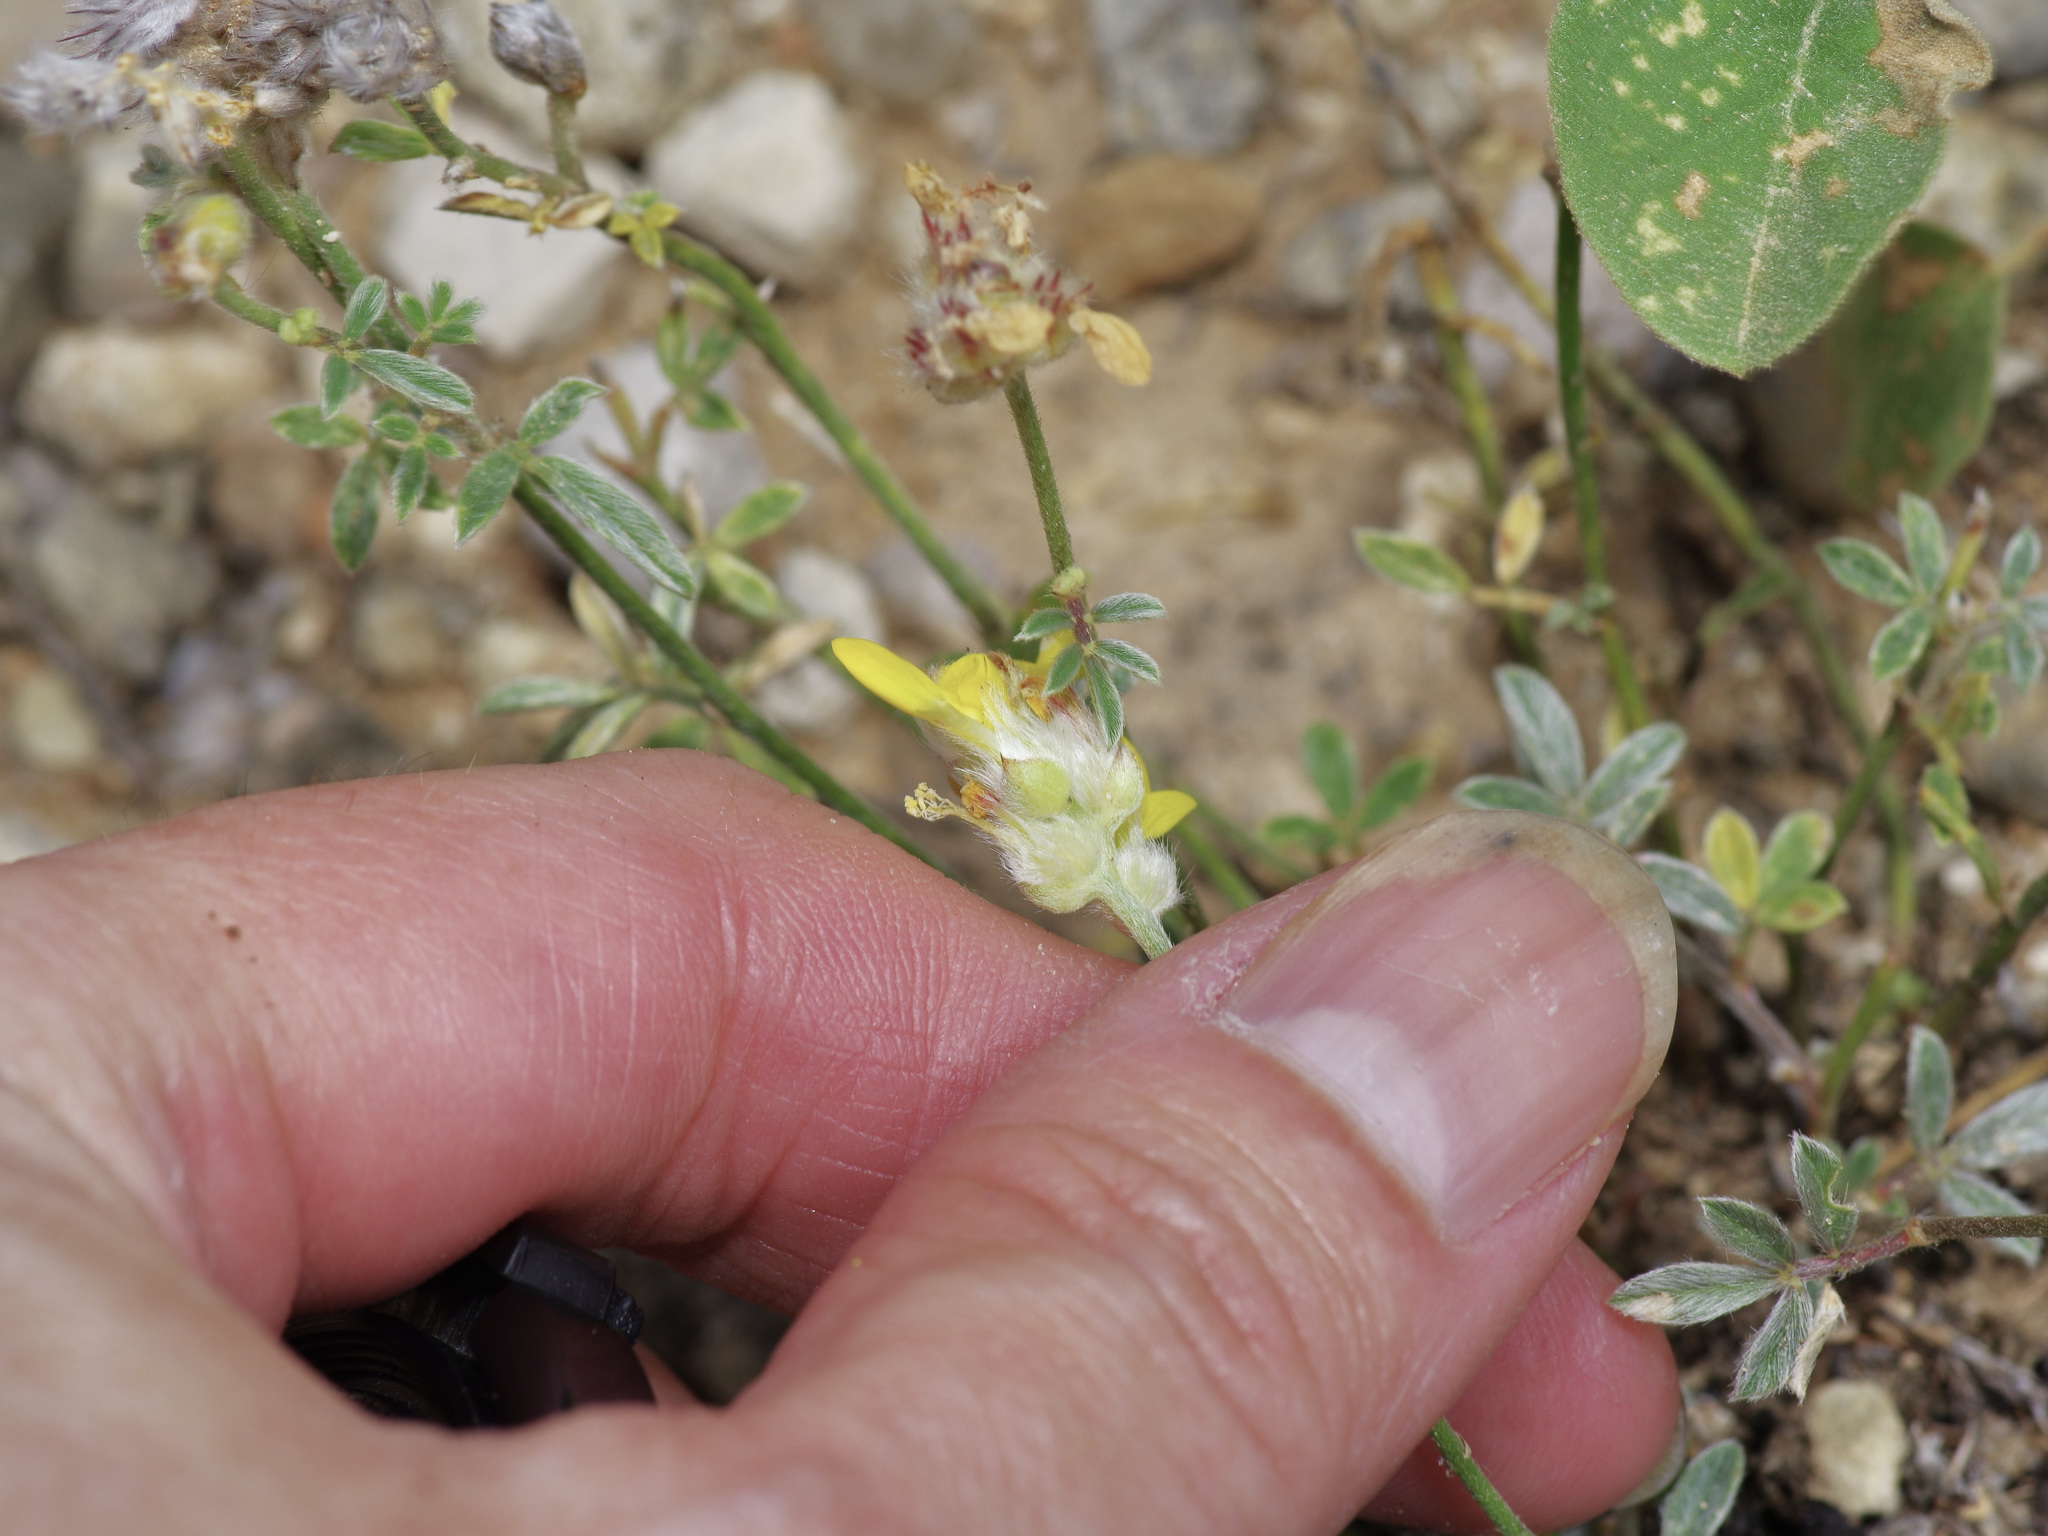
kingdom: Plantae
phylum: Tracheophyta
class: Magnoliopsida
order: Fabales
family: Fabaceae
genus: Dalea
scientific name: Dalea nana
